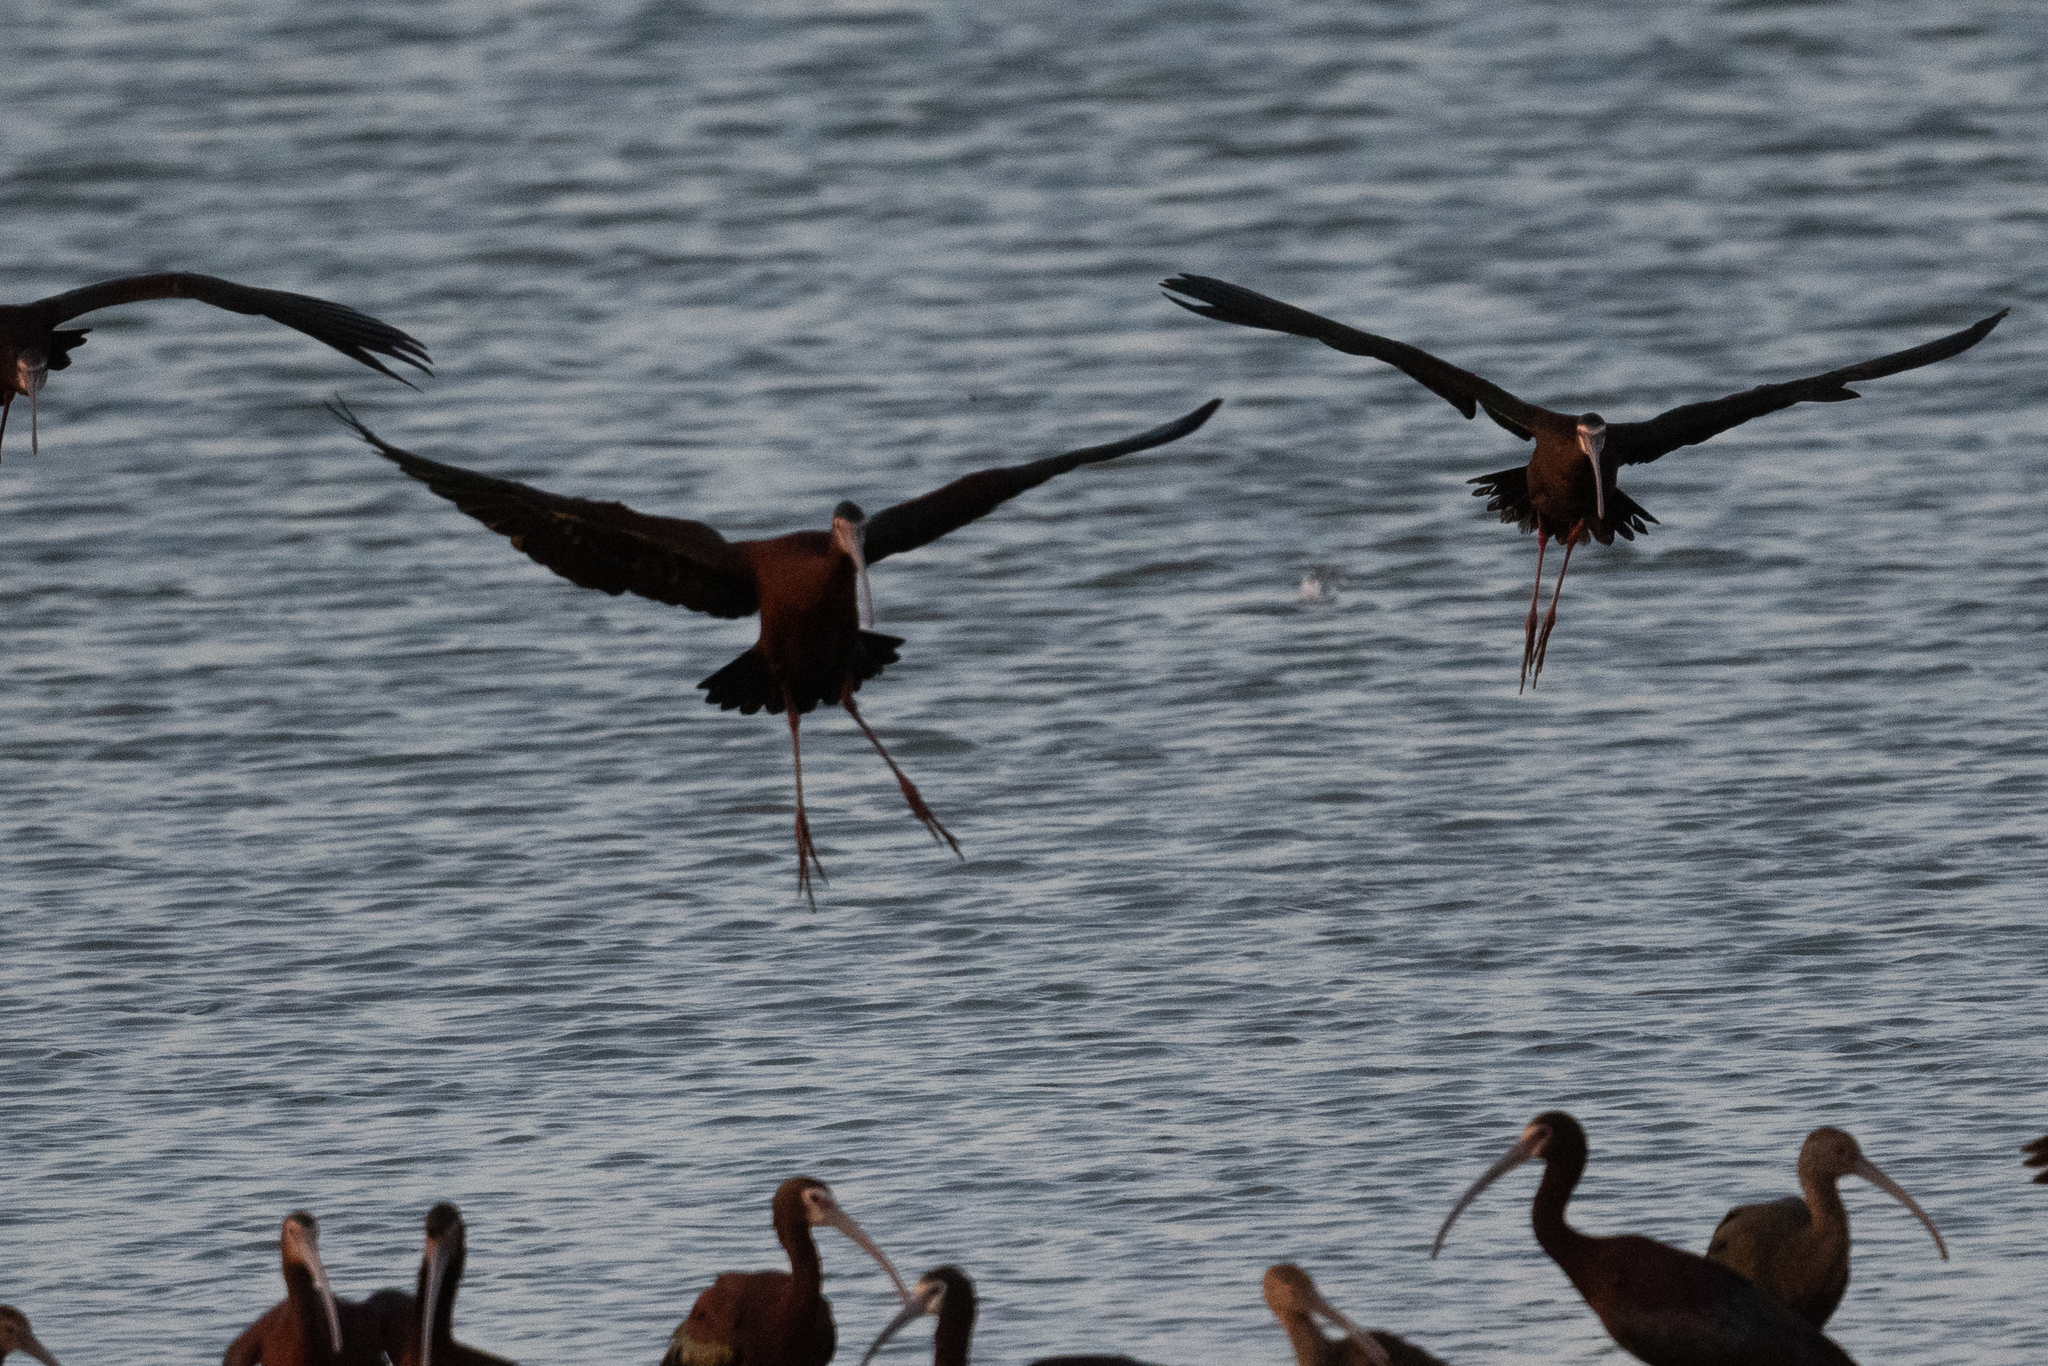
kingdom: Animalia
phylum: Chordata
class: Aves
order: Pelecaniformes
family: Threskiornithidae
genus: Plegadis
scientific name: Plegadis chihi
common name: White-faced ibis
